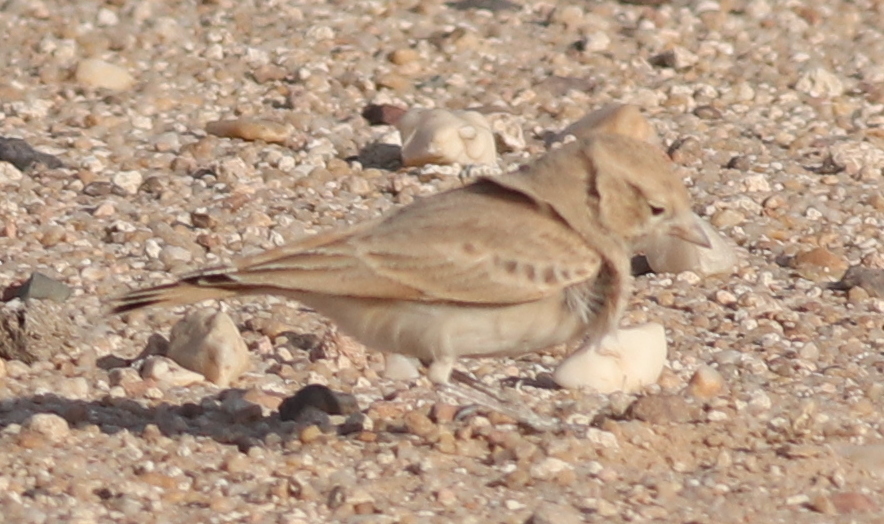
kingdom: Animalia
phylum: Chordata
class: Aves
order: Passeriformes
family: Alaudidae
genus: Ammomanes
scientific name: Ammomanes cinctura
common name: Bar-tailed lark
